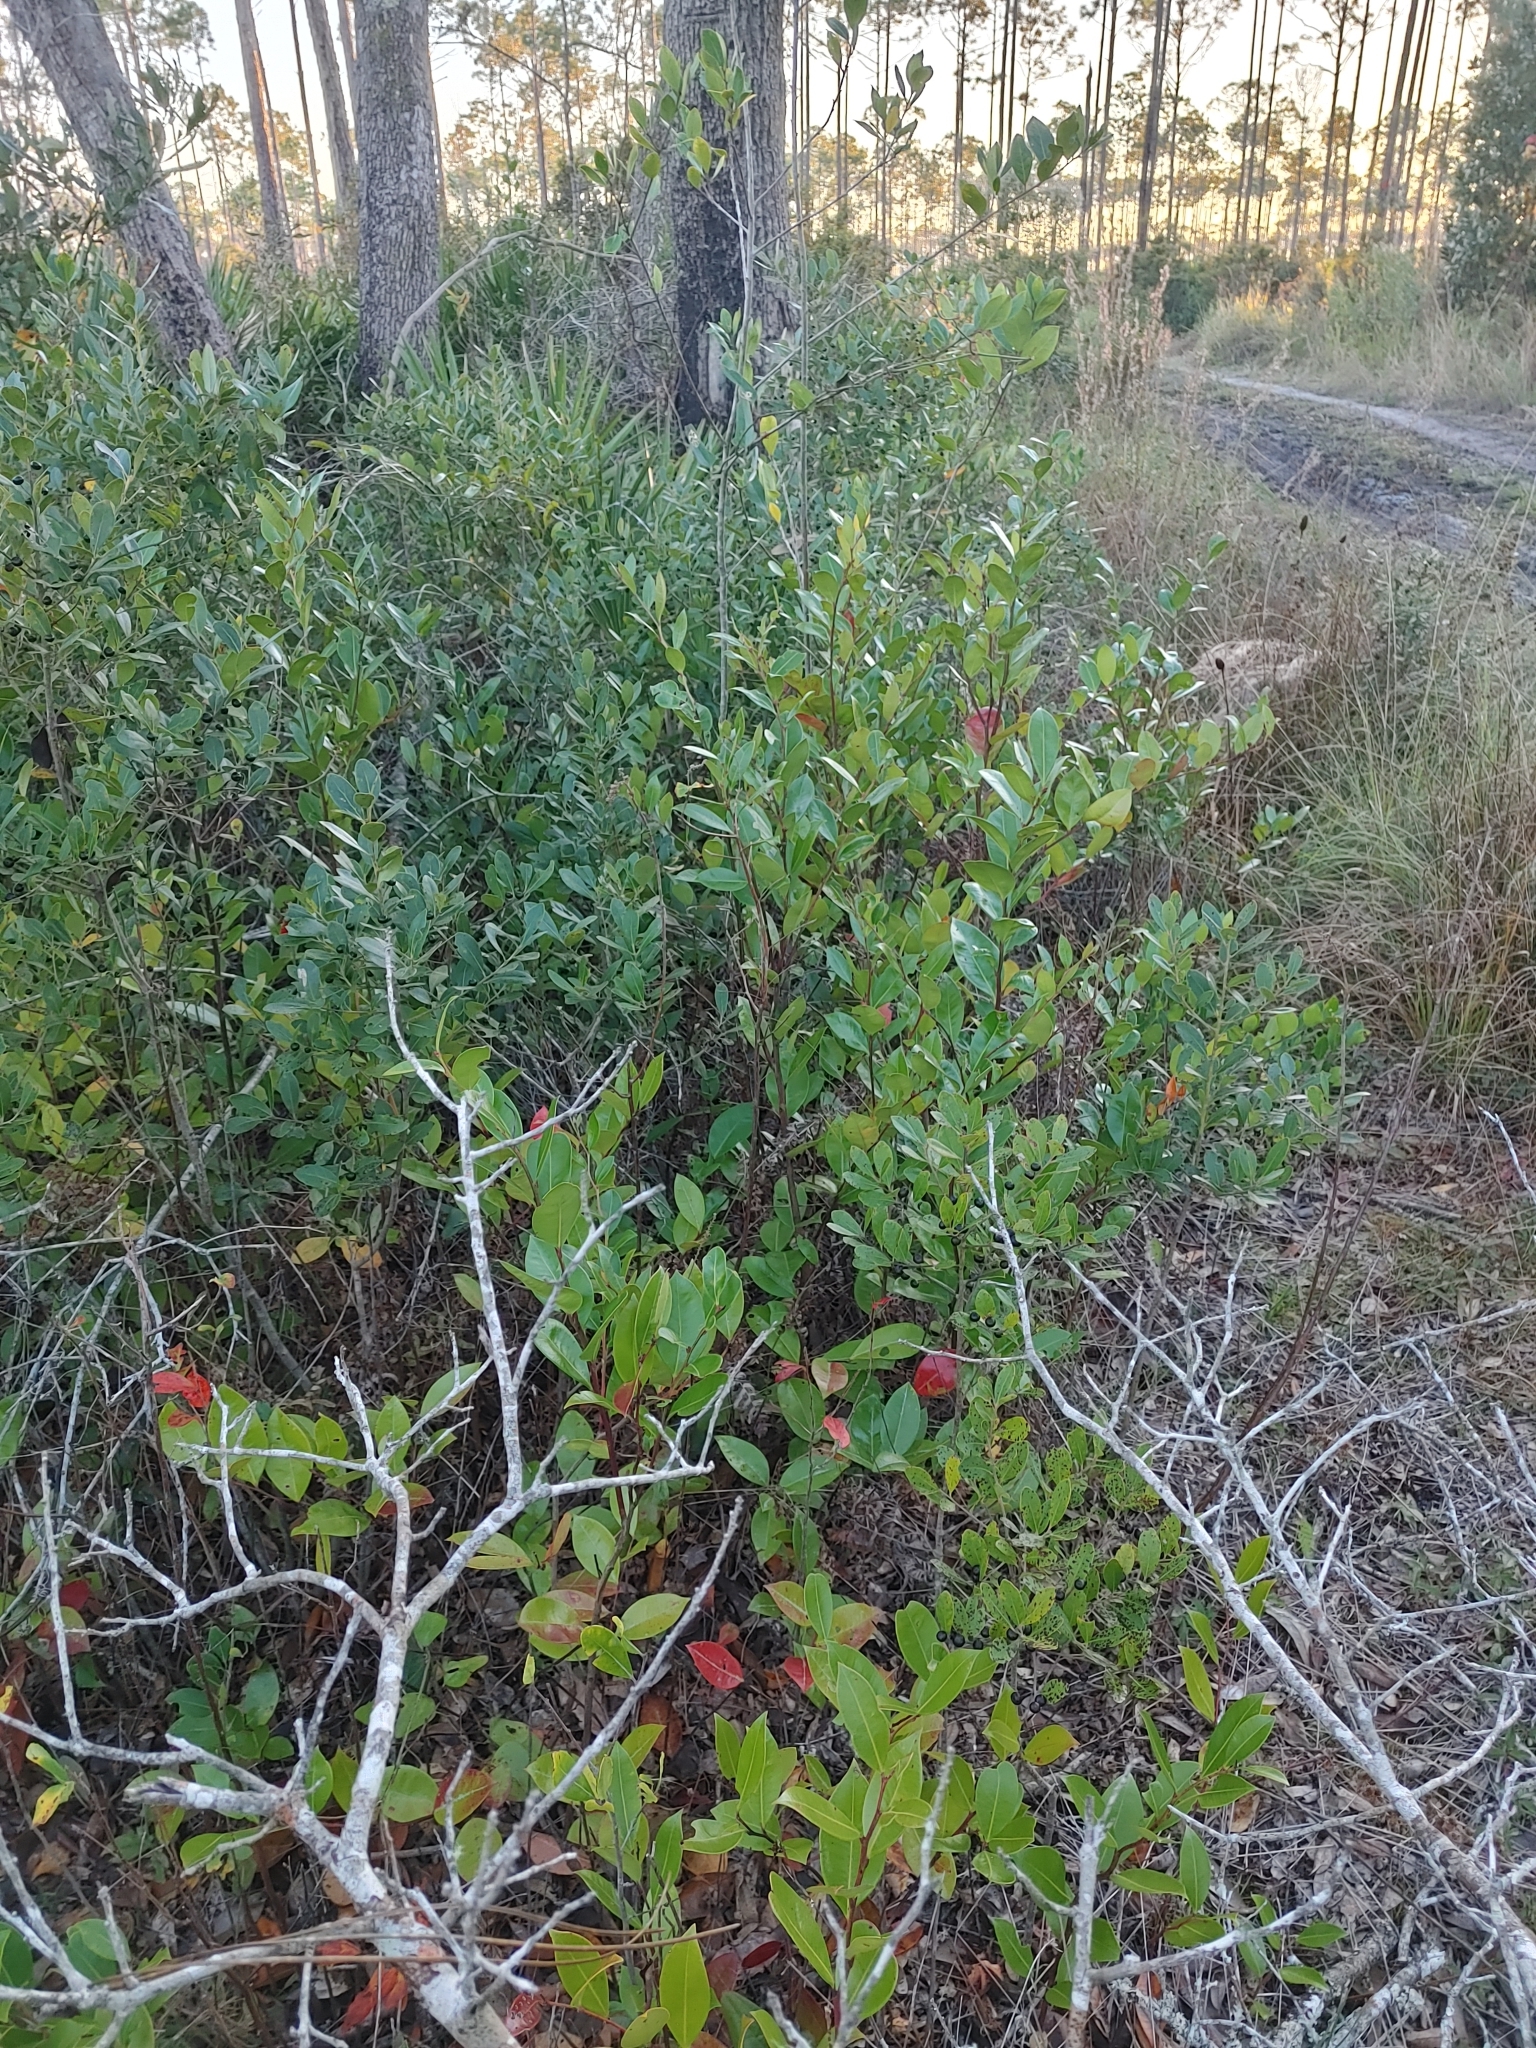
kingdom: Plantae
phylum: Tracheophyta
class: Magnoliopsida
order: Ericales
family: Ericaceae
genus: Lyonia
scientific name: Lyonia lucida
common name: Fetterbush
